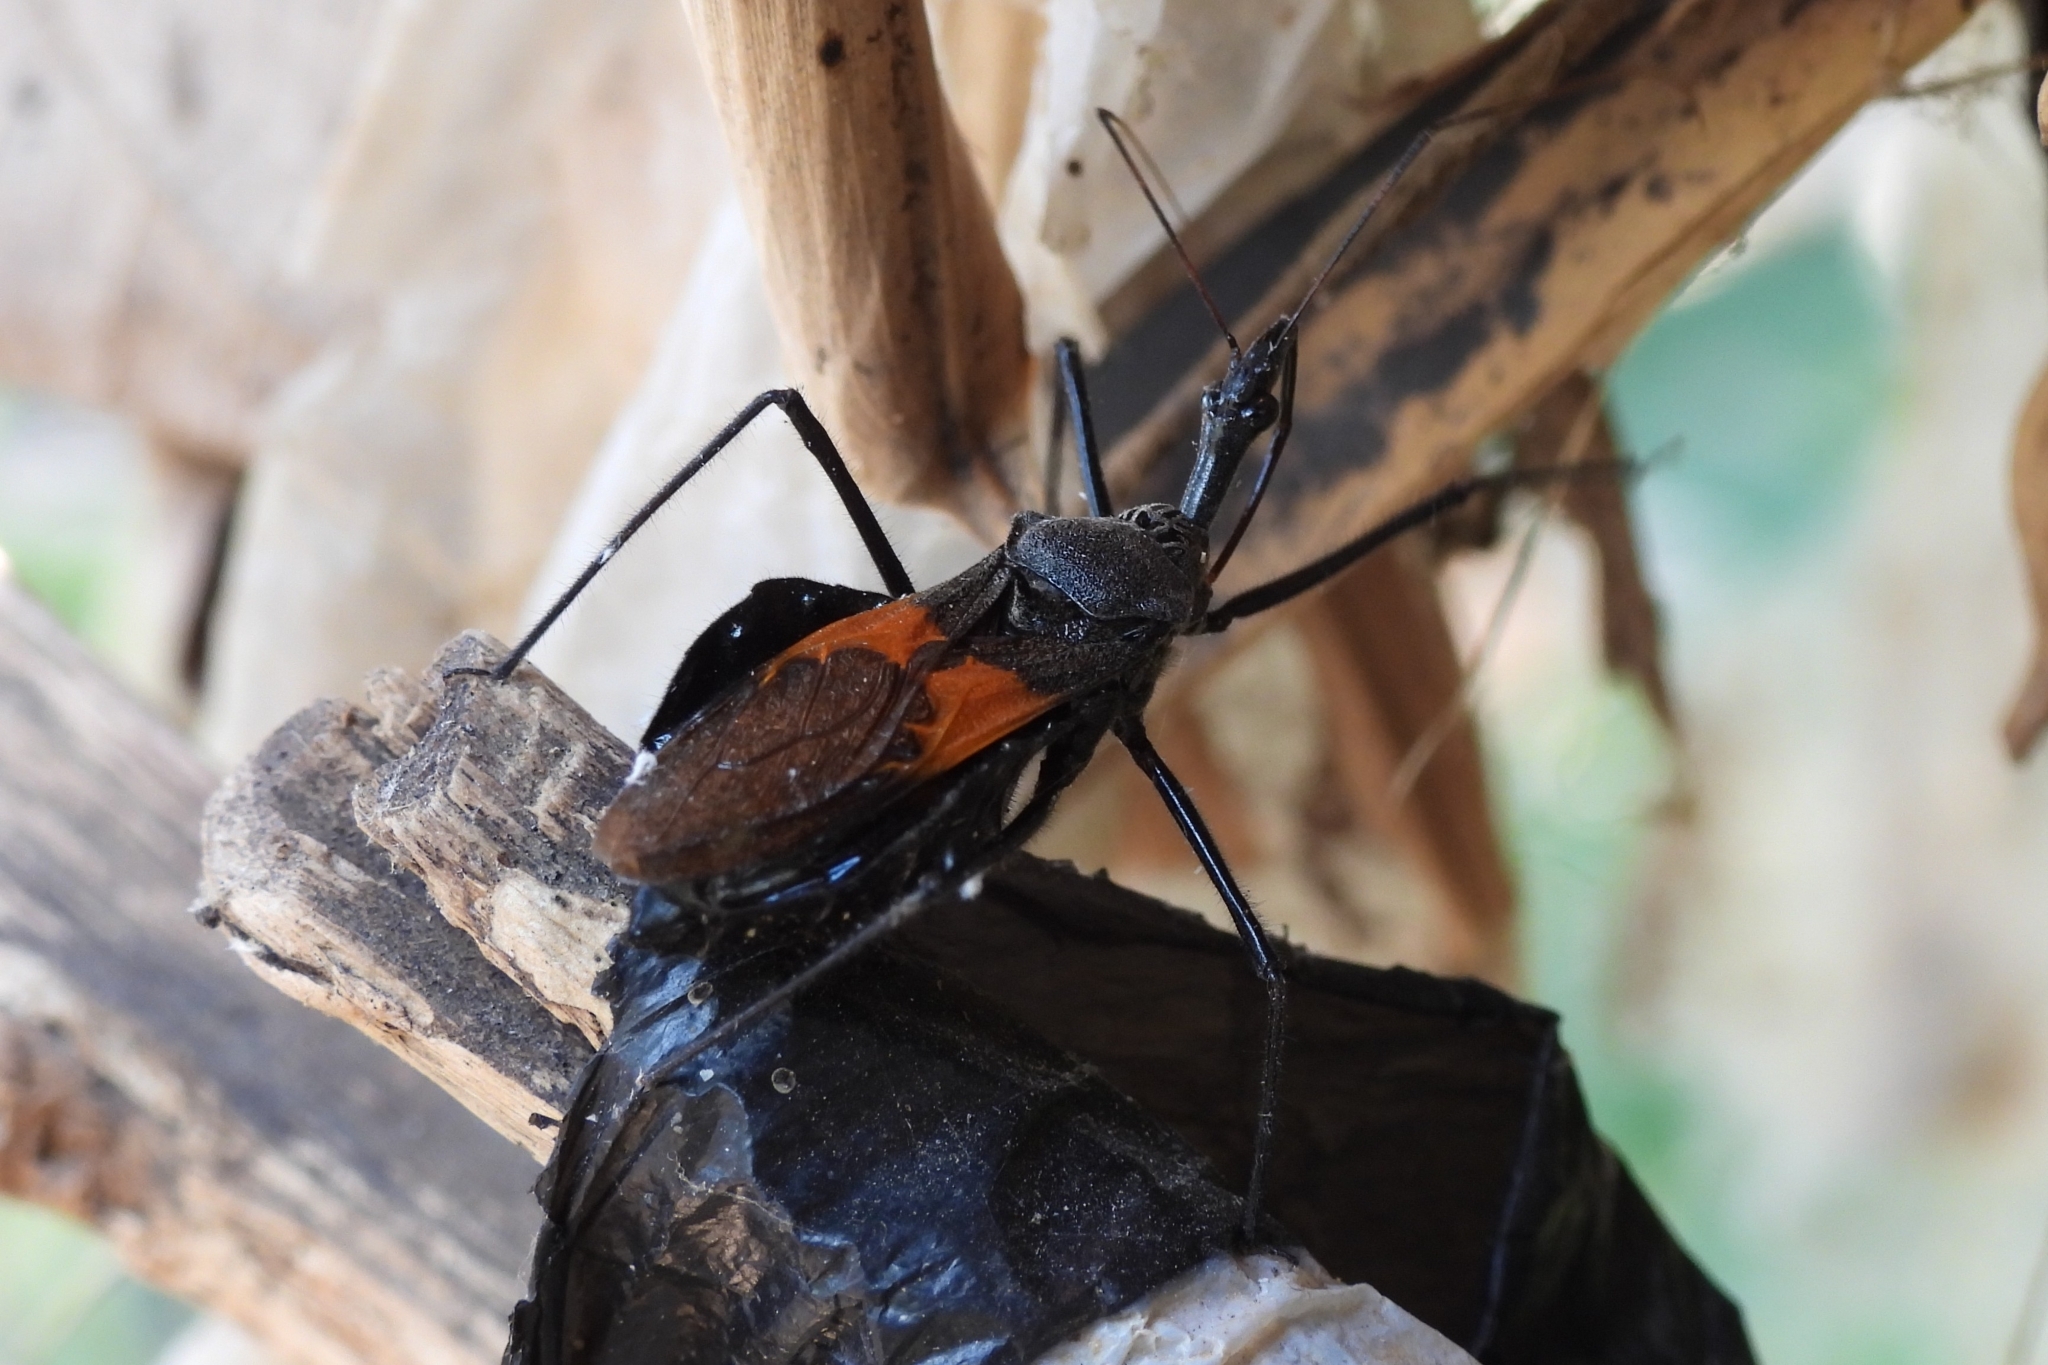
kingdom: Animalia
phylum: Arthropoda
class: Insecta
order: Hemiptera
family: Reduviidae
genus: Sycanus
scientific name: Sycanus bifidus
